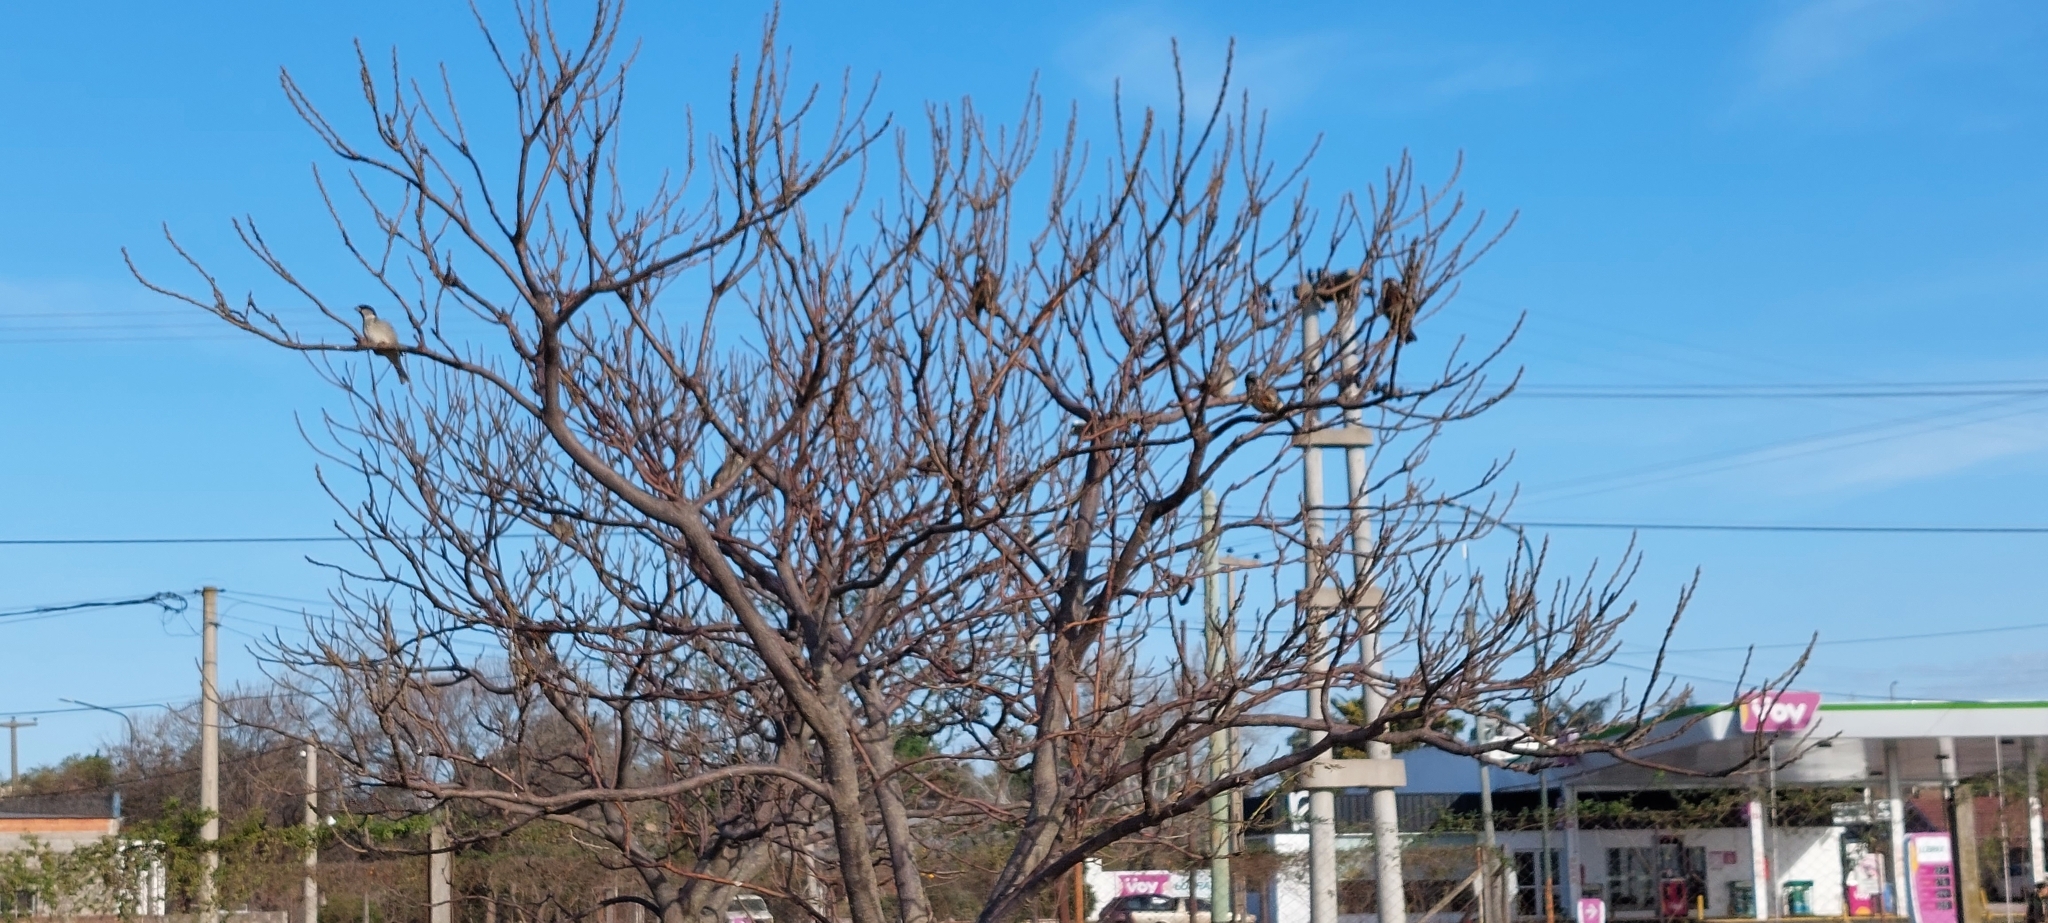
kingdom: Animalia
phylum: Chordata
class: Aves
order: Passeriformes
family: Passeridae
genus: Passer
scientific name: Passer domesticus
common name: House sparrow
